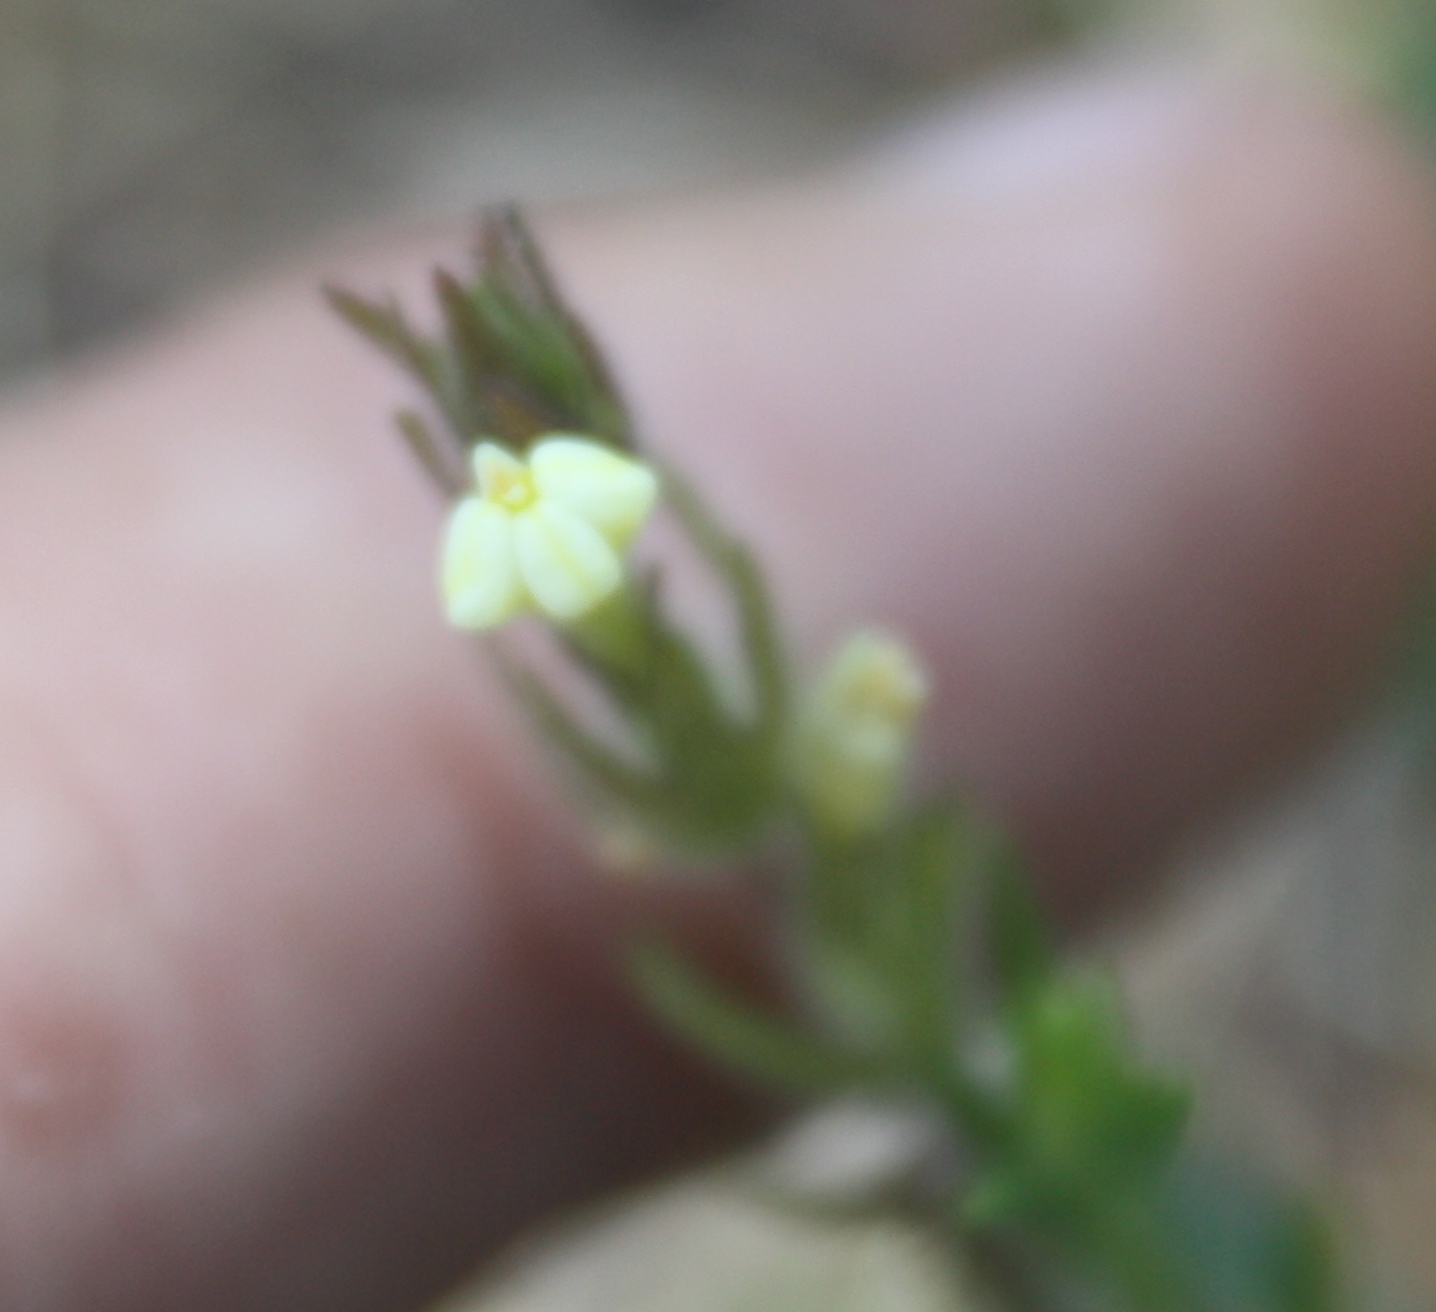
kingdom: Plantae
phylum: Tracheophyta
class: Magnoliopsida
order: Lamiales
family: Orobanchaceae
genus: Castilleja
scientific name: Castilleja tenuis
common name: Hairy indian paintbrush
